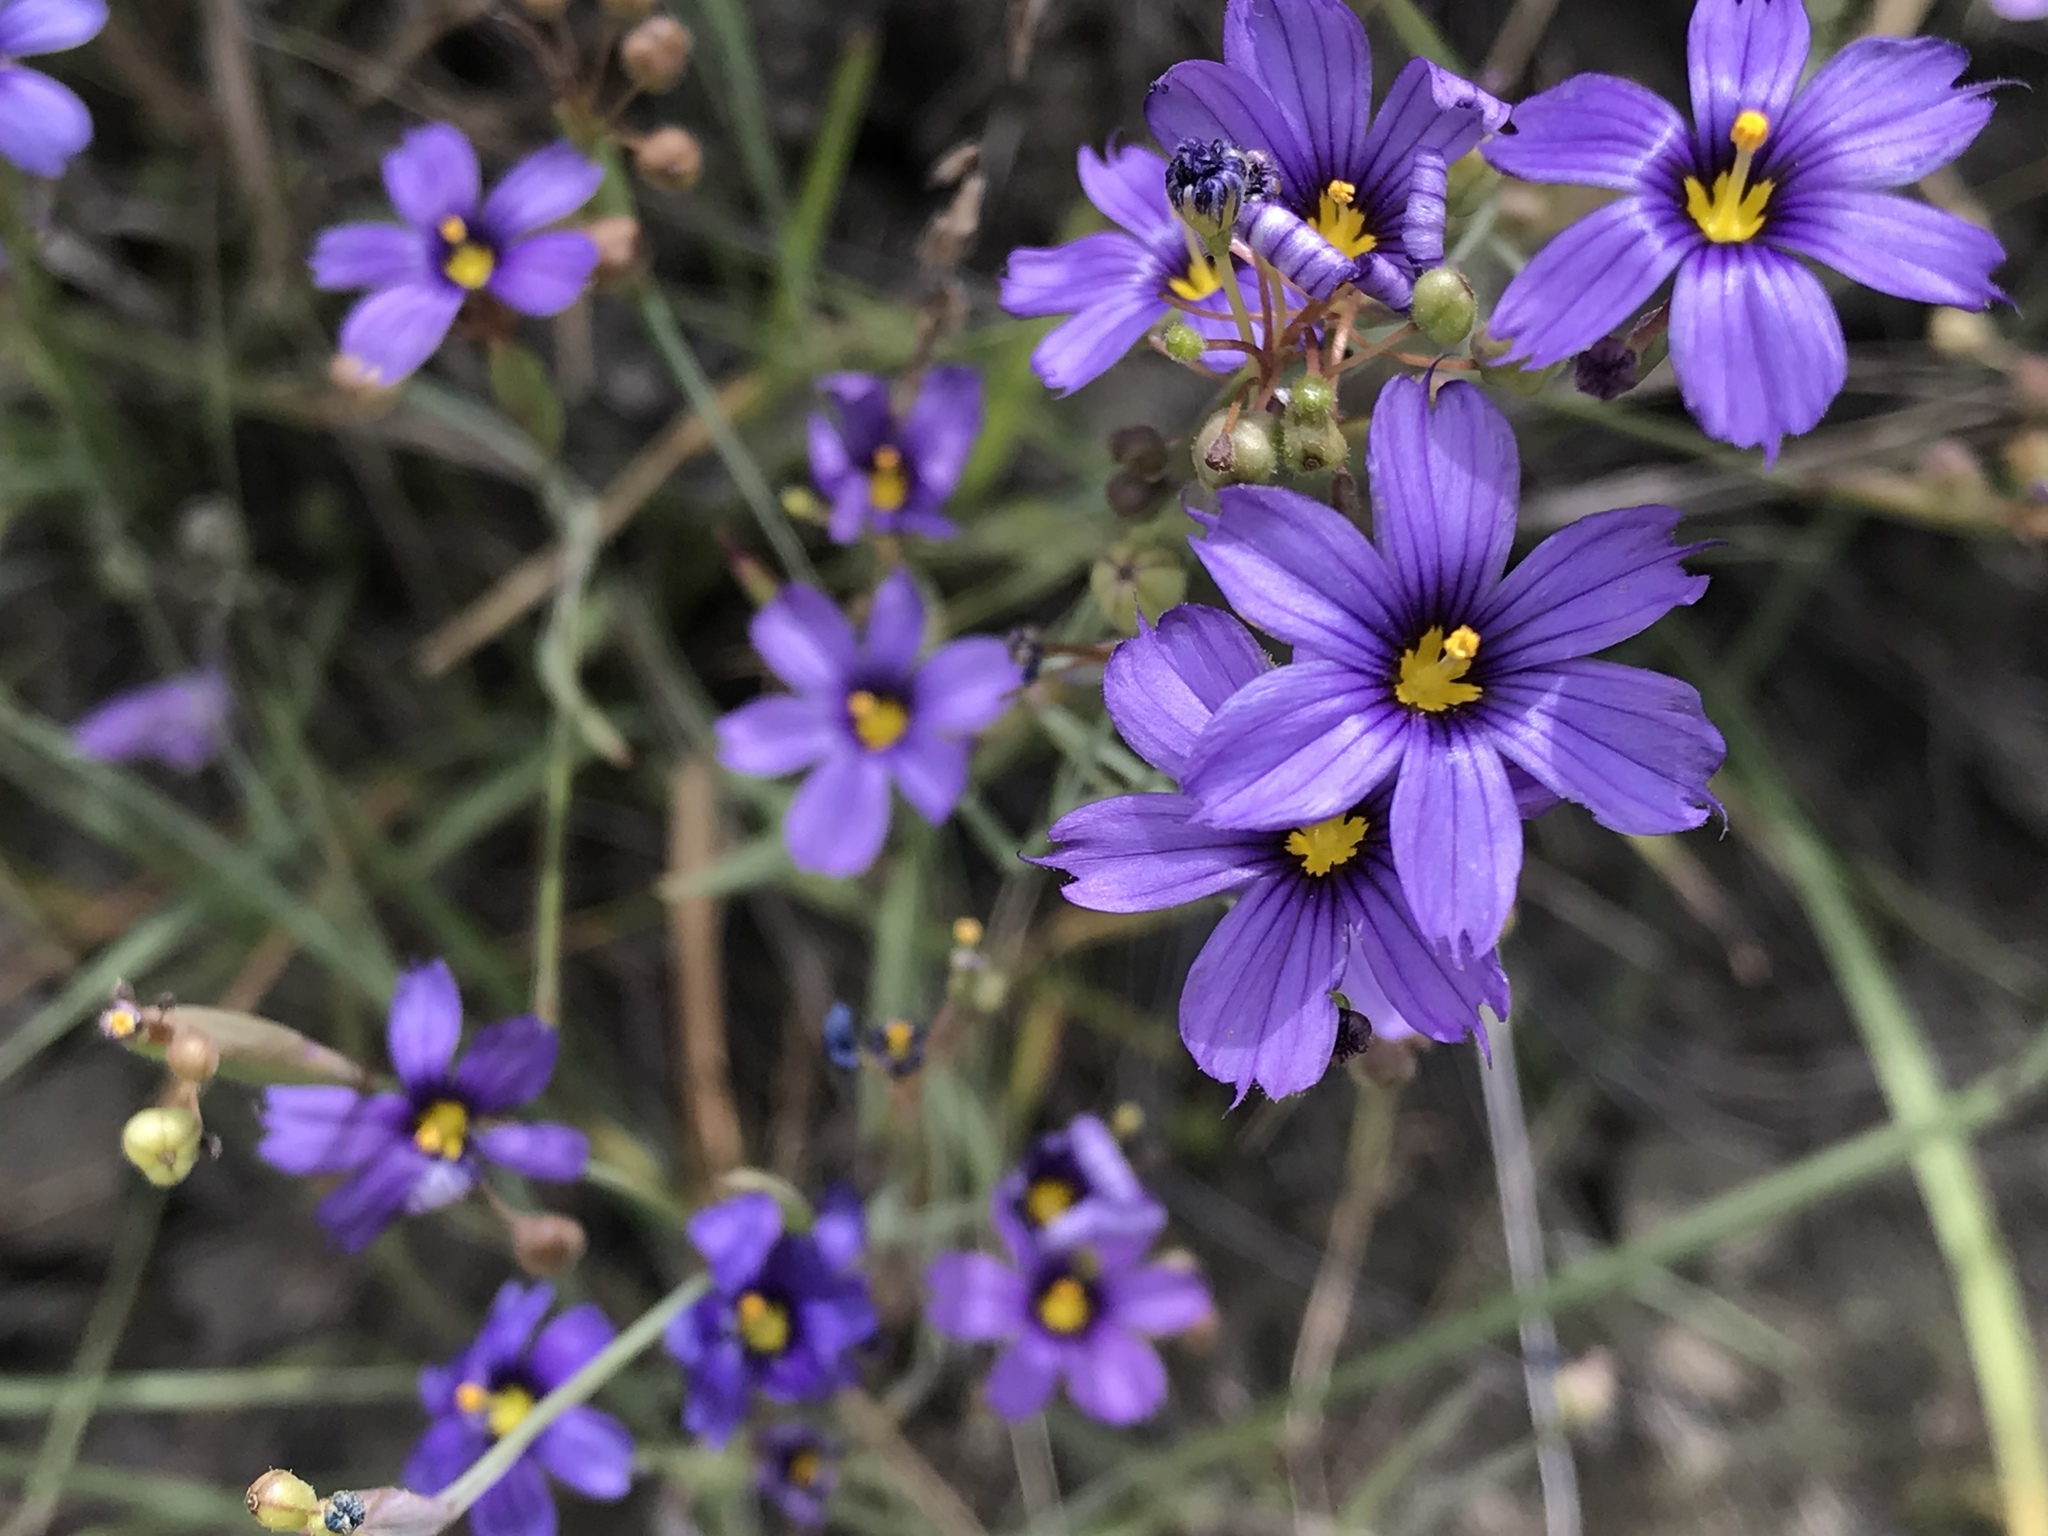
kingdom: Plantae
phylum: Tracheophyta
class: Liliopsida
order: Asparagales
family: Iridaceae
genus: Sisyrinchium
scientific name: Sisyrinchium bellum
